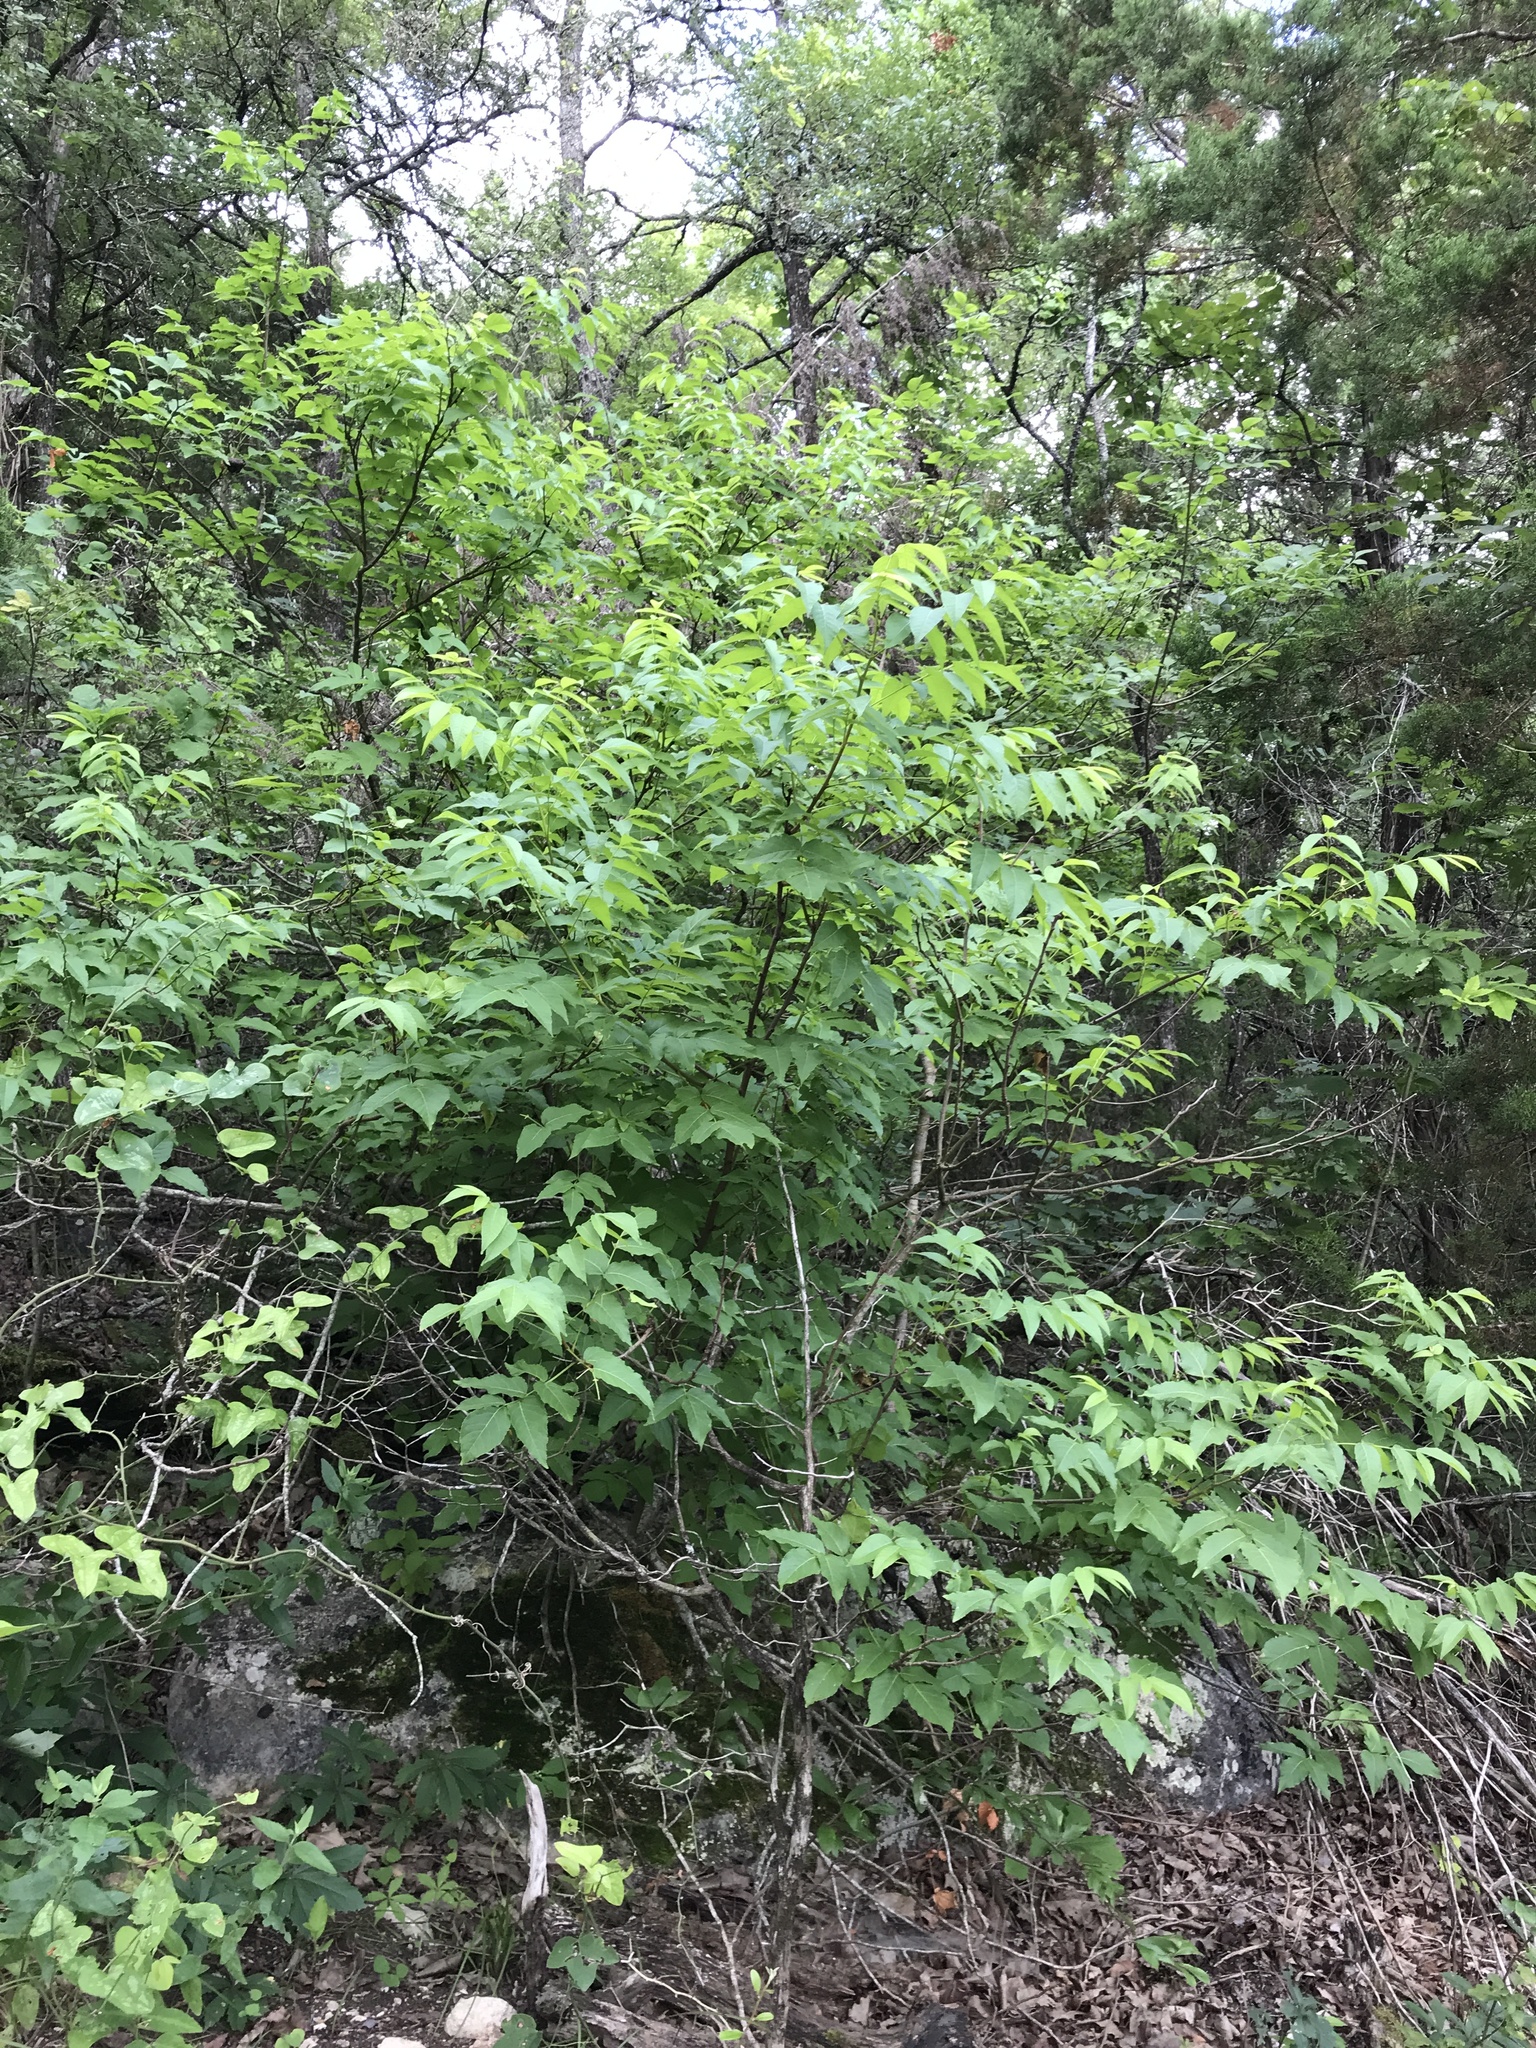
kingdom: Plantae
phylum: Tracheophyta
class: Magnoliopsida
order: Sapindales
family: Sapindaceae
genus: Ungnadia
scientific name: Ungnadia speciosa
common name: Texas-buckeye
